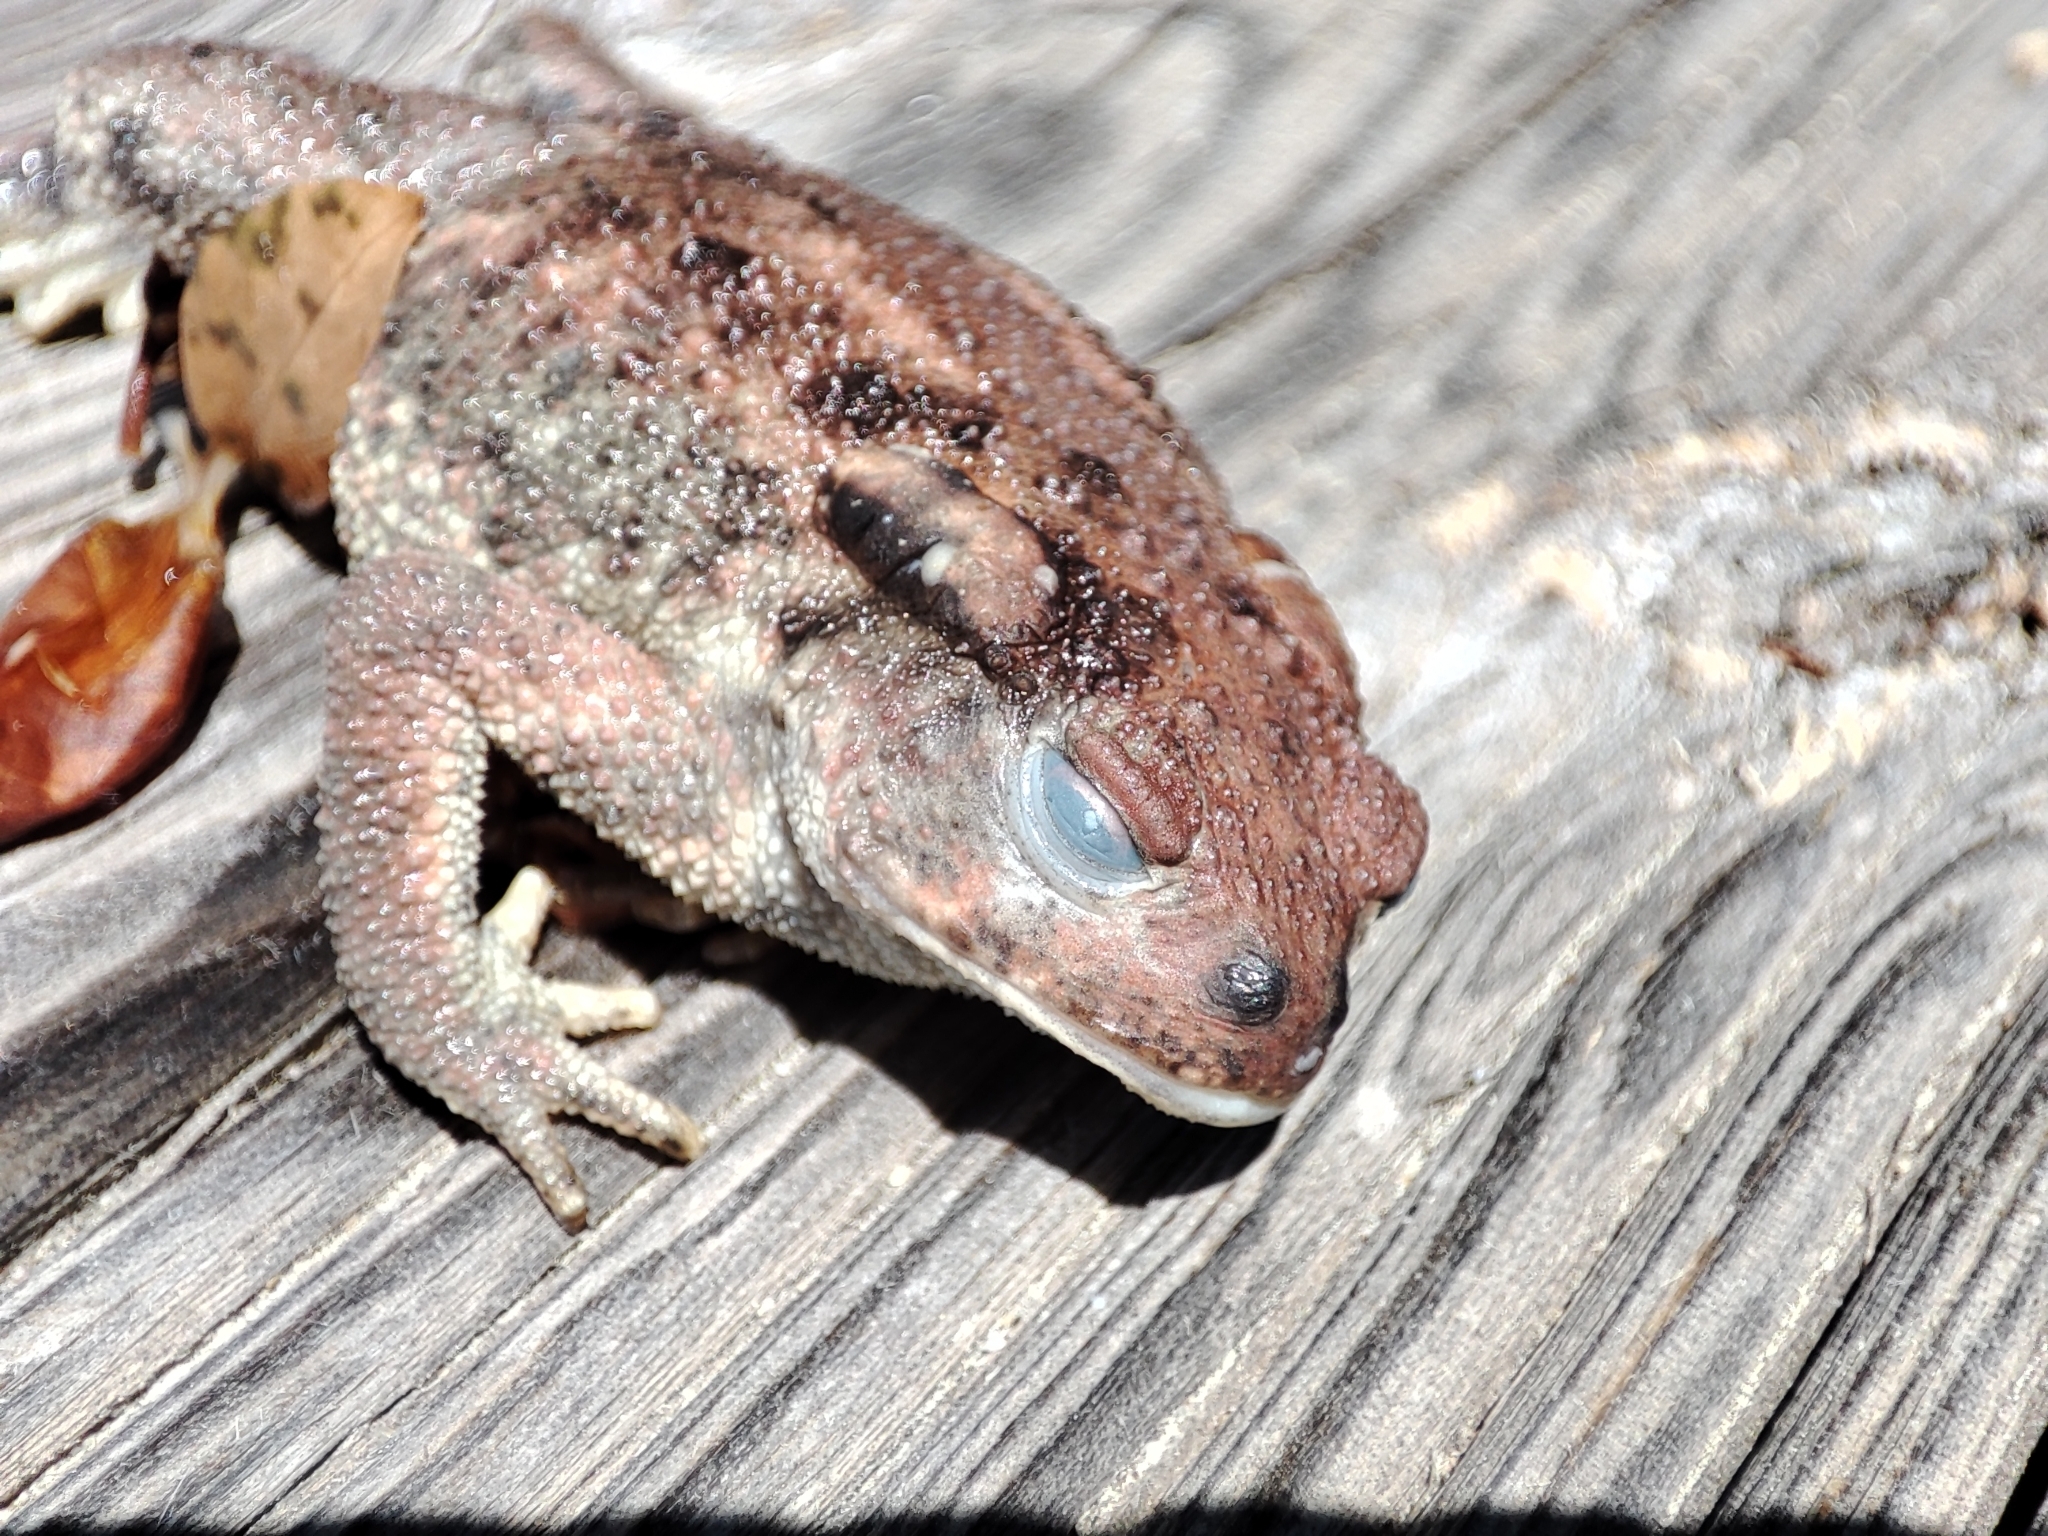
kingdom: Animalia
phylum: Chordata
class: Amphibia
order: Anura
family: Bufonidae
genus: Bufo
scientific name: Bufo spinosus
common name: Western common toad
